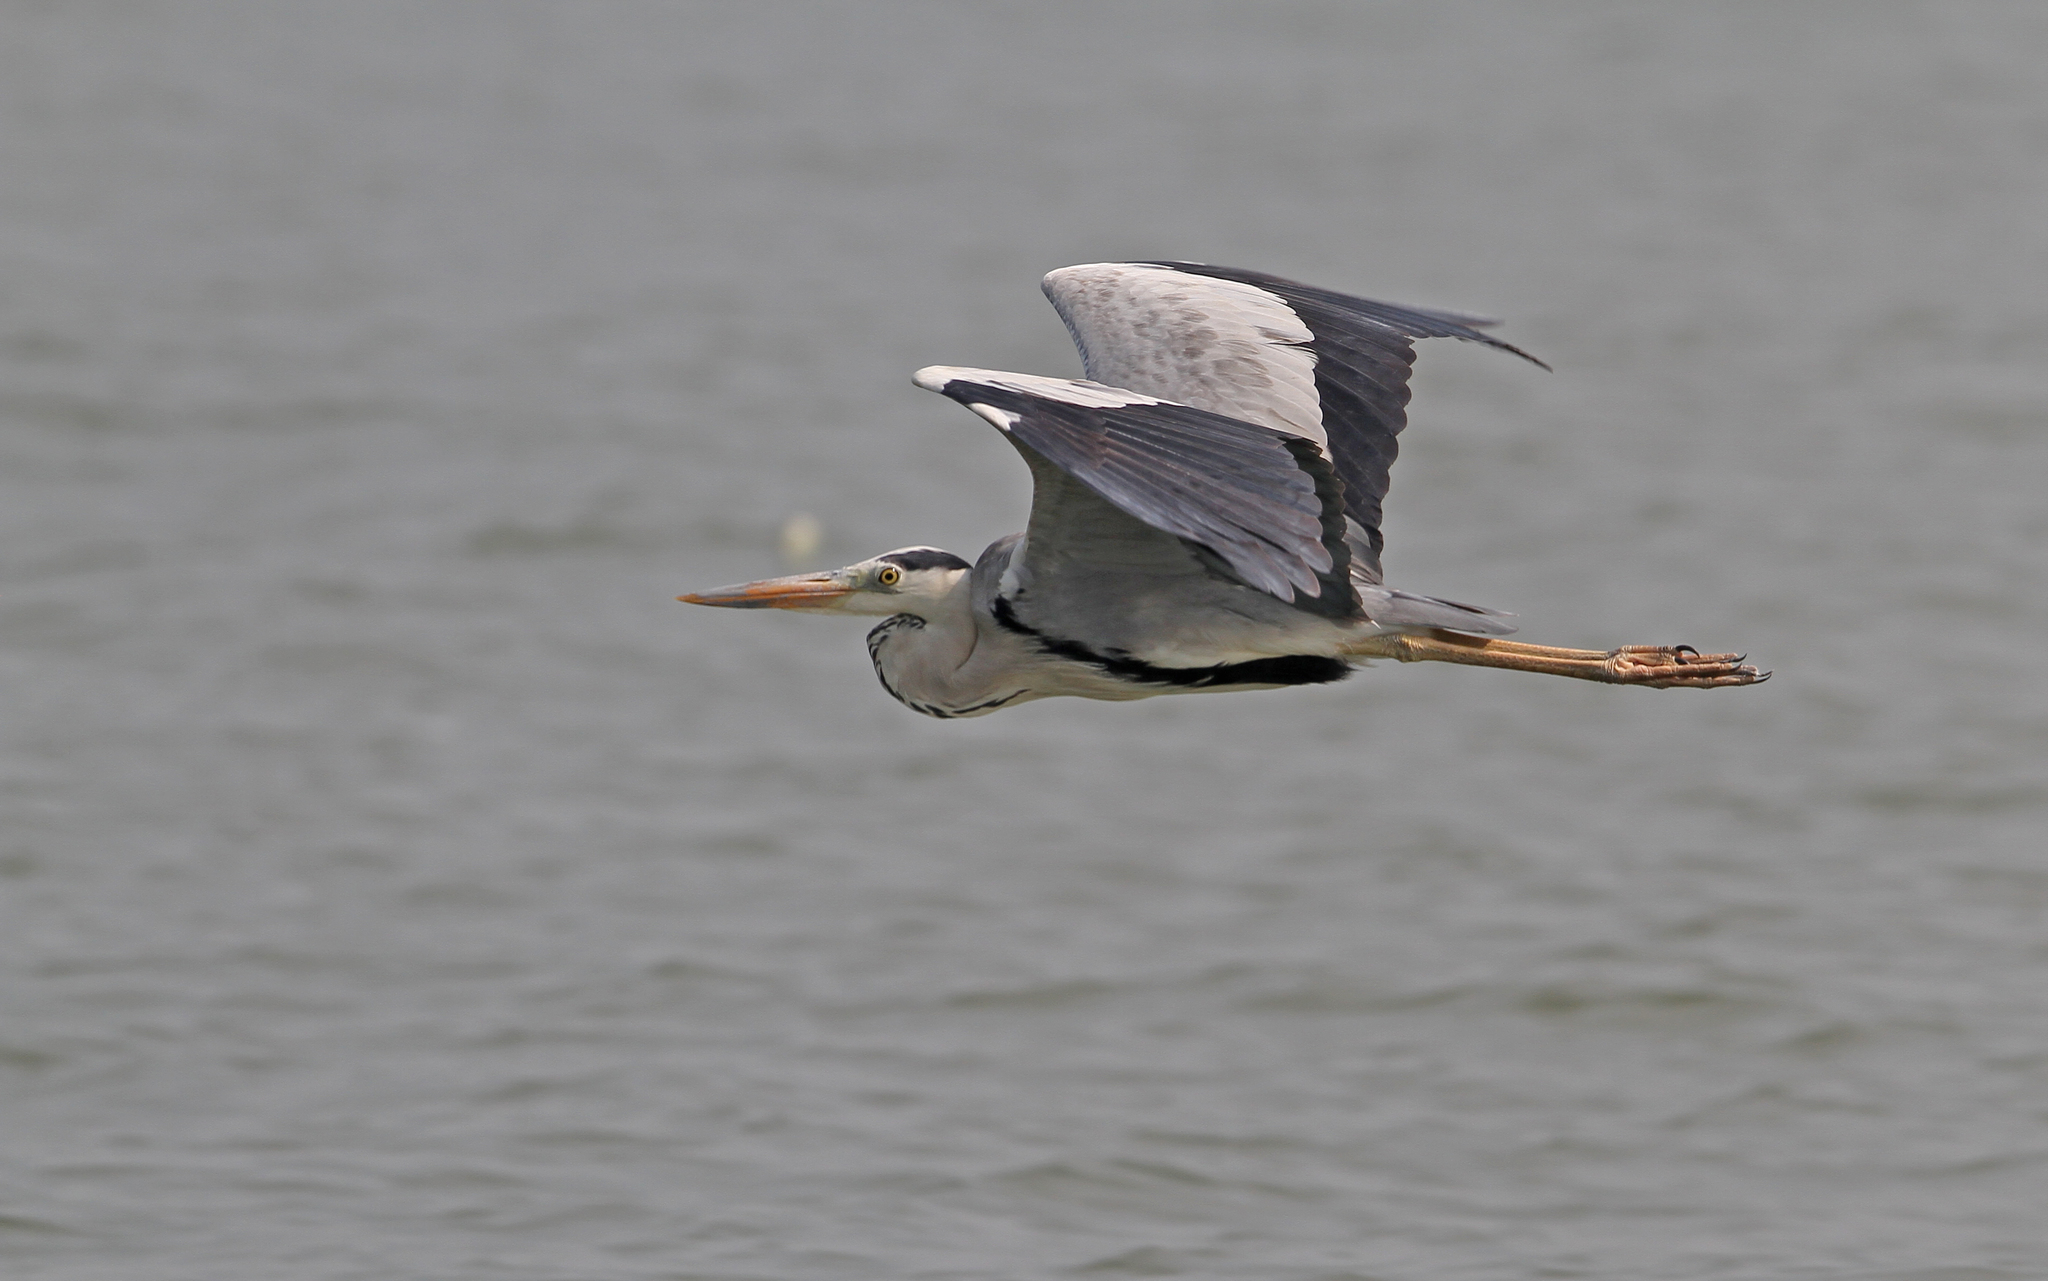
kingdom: Animalia
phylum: Chordata
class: Aves
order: Pelecaniformes
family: Ardeidae
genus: Ardea
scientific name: Ardea cinerea
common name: Grey heron
